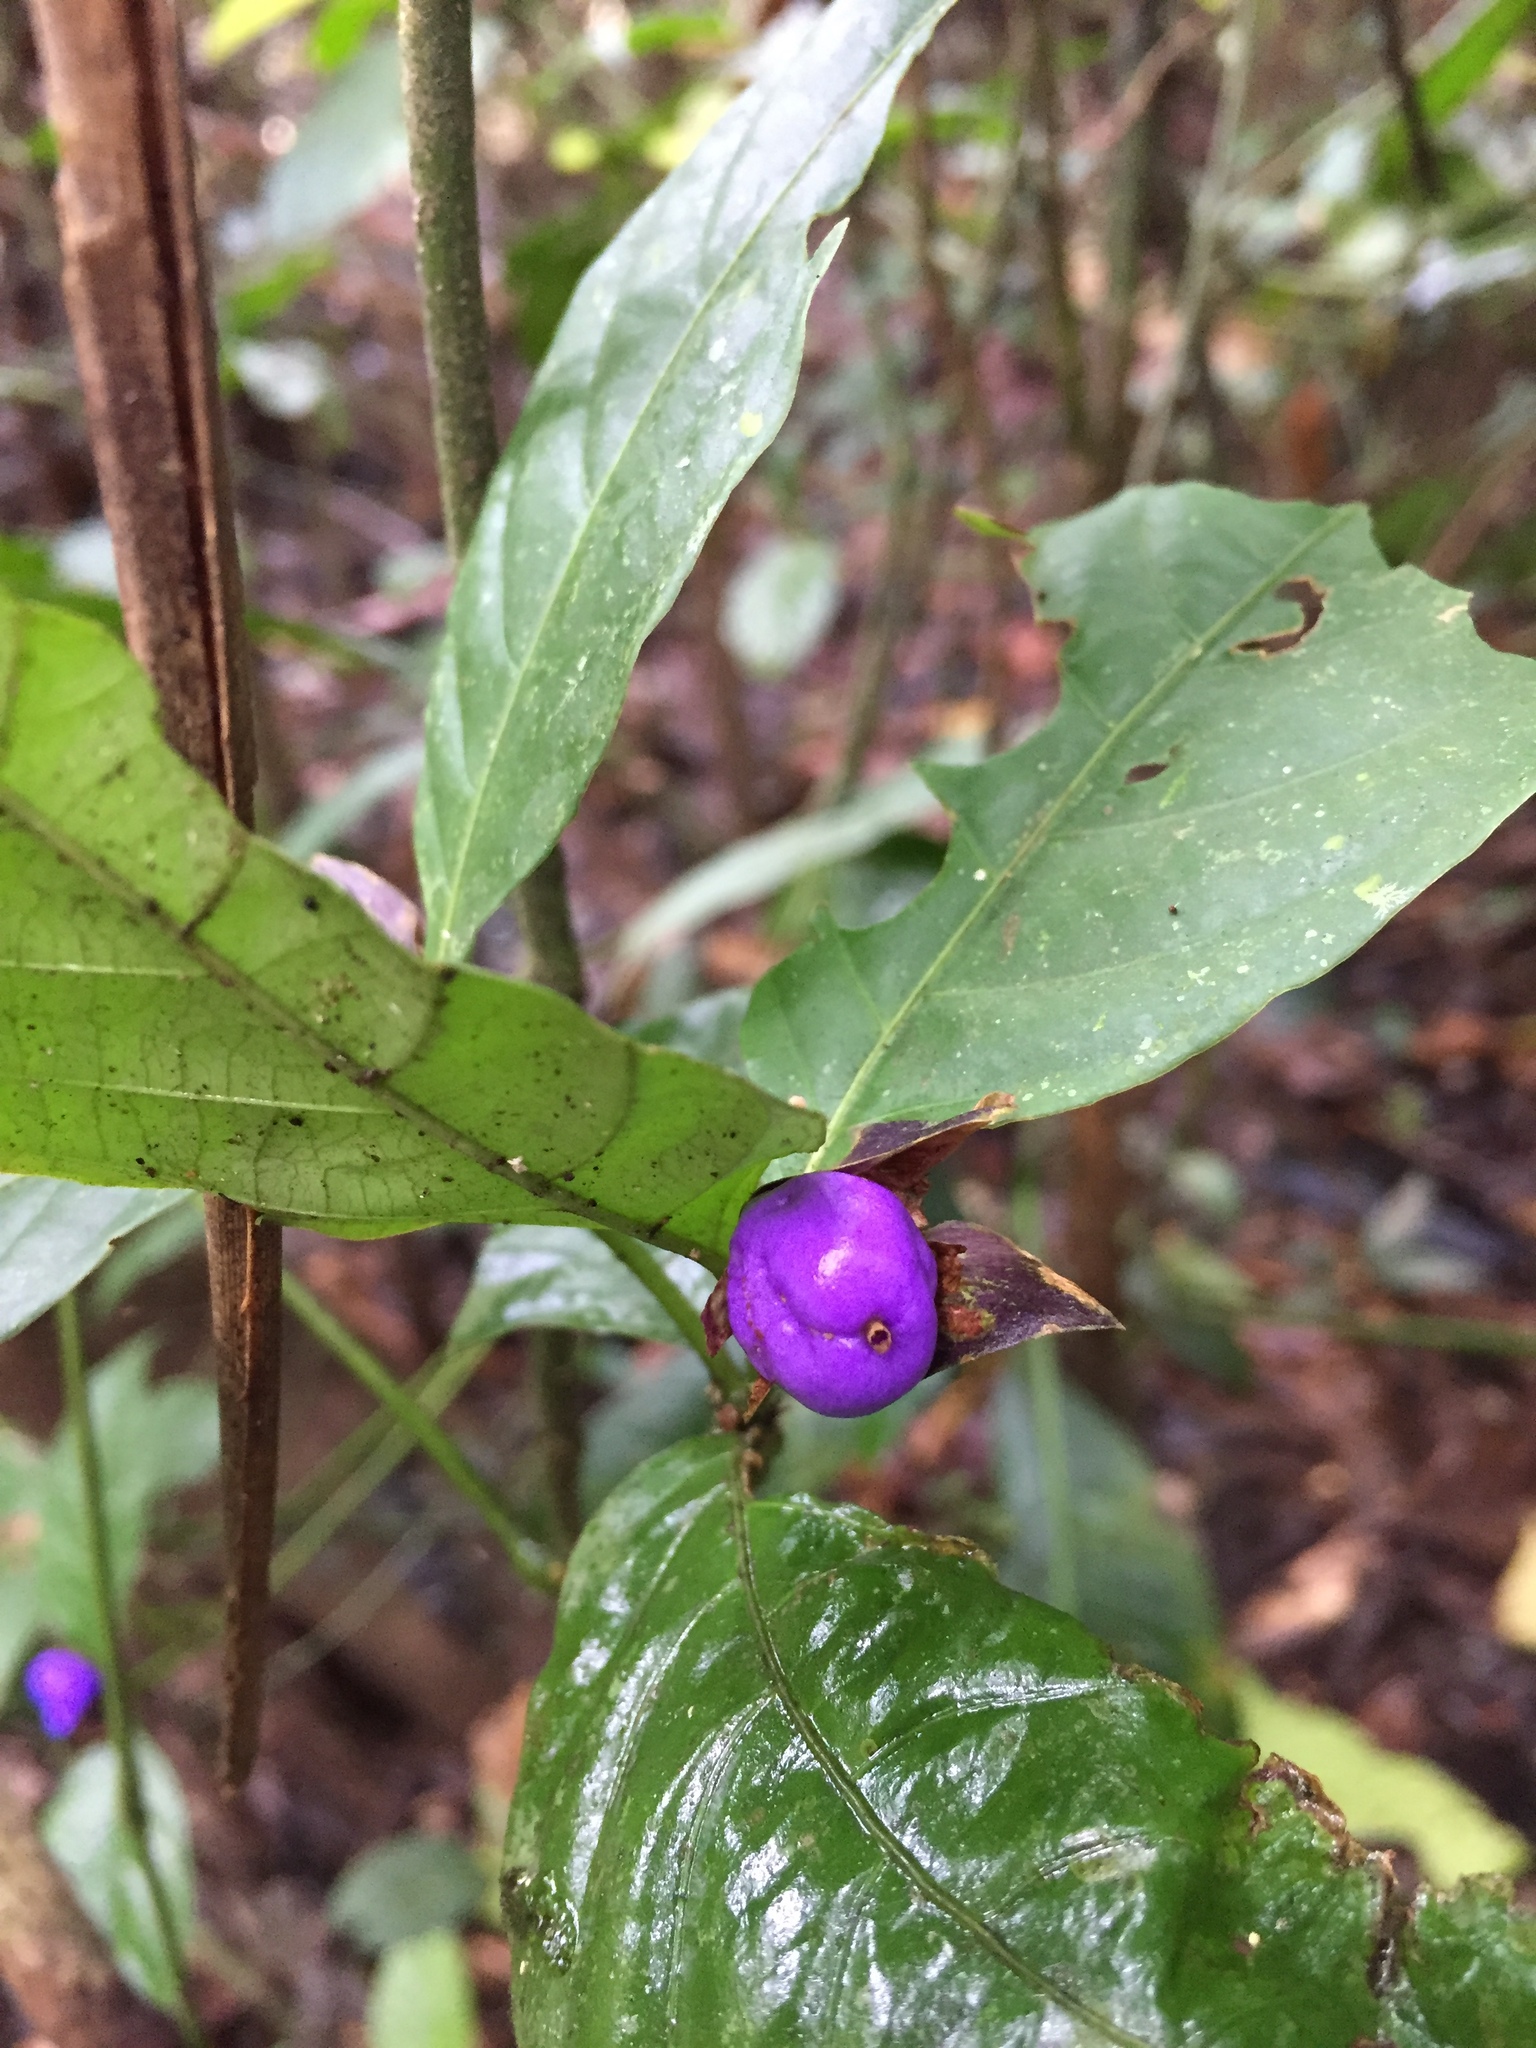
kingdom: Plantae
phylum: Tracheophyta
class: Magnoliopsida
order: Gentianales
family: Rubiaceae
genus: Palicourea
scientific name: Palicourea ostreophora
